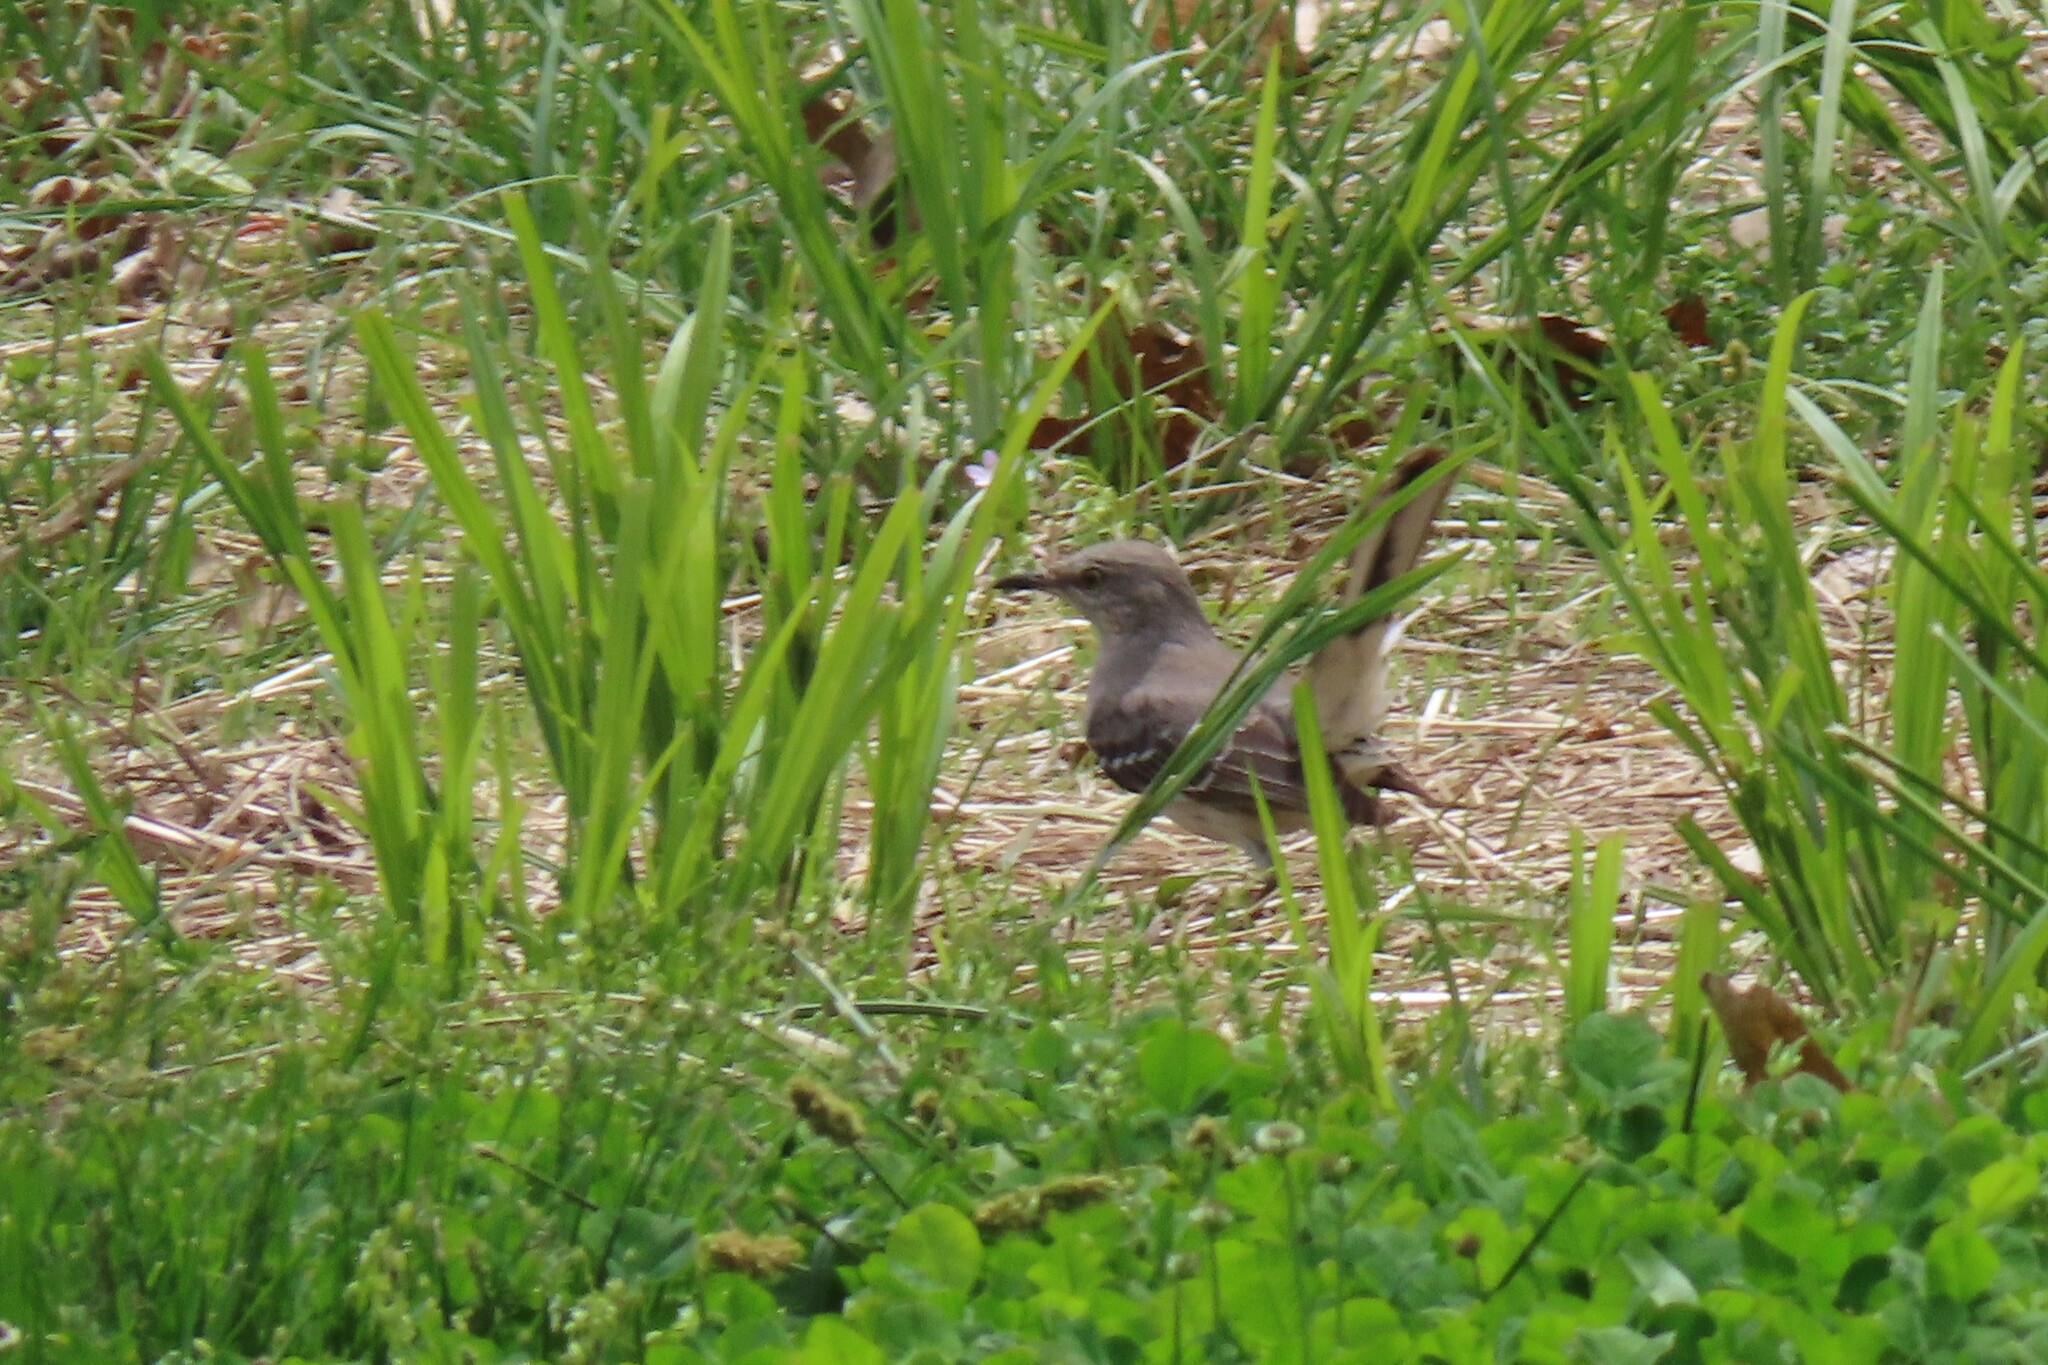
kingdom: Animalia
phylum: Chordata
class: Aves
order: Passeriformes
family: Mimidae
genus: Mimus
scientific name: Mimus polyglottos
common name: Northern mockingbird
